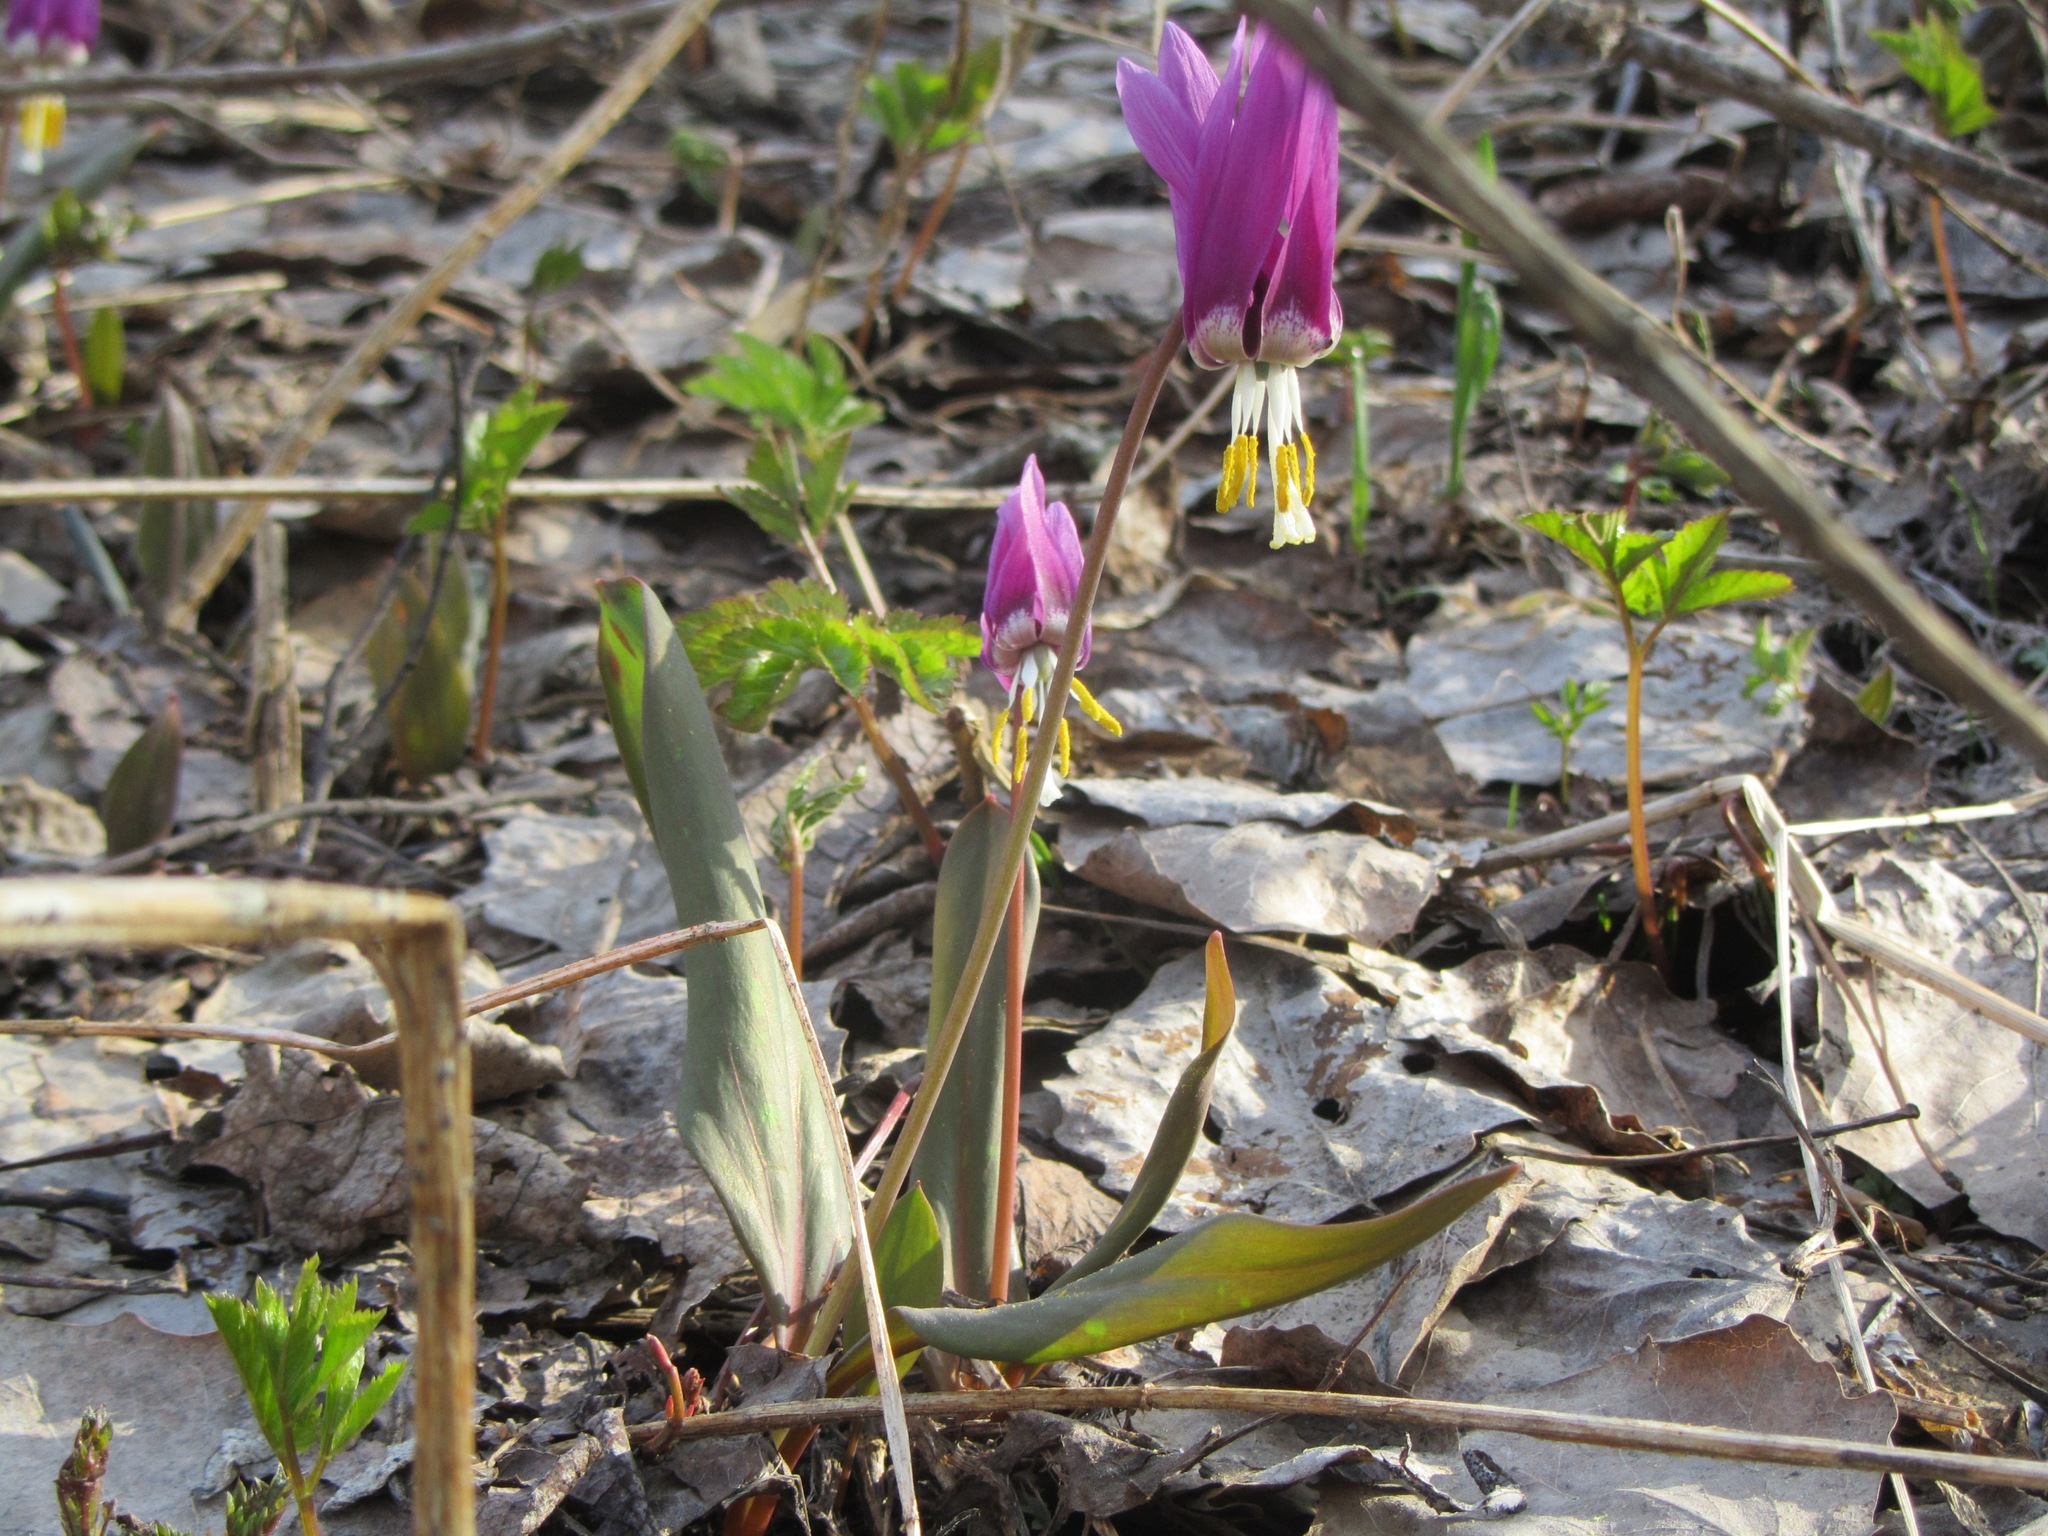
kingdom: Plantae
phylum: Tracheophyta
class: Liliopsida
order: Liliales
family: Liliaceae
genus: Erythronium
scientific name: Erythronium sibiricum
